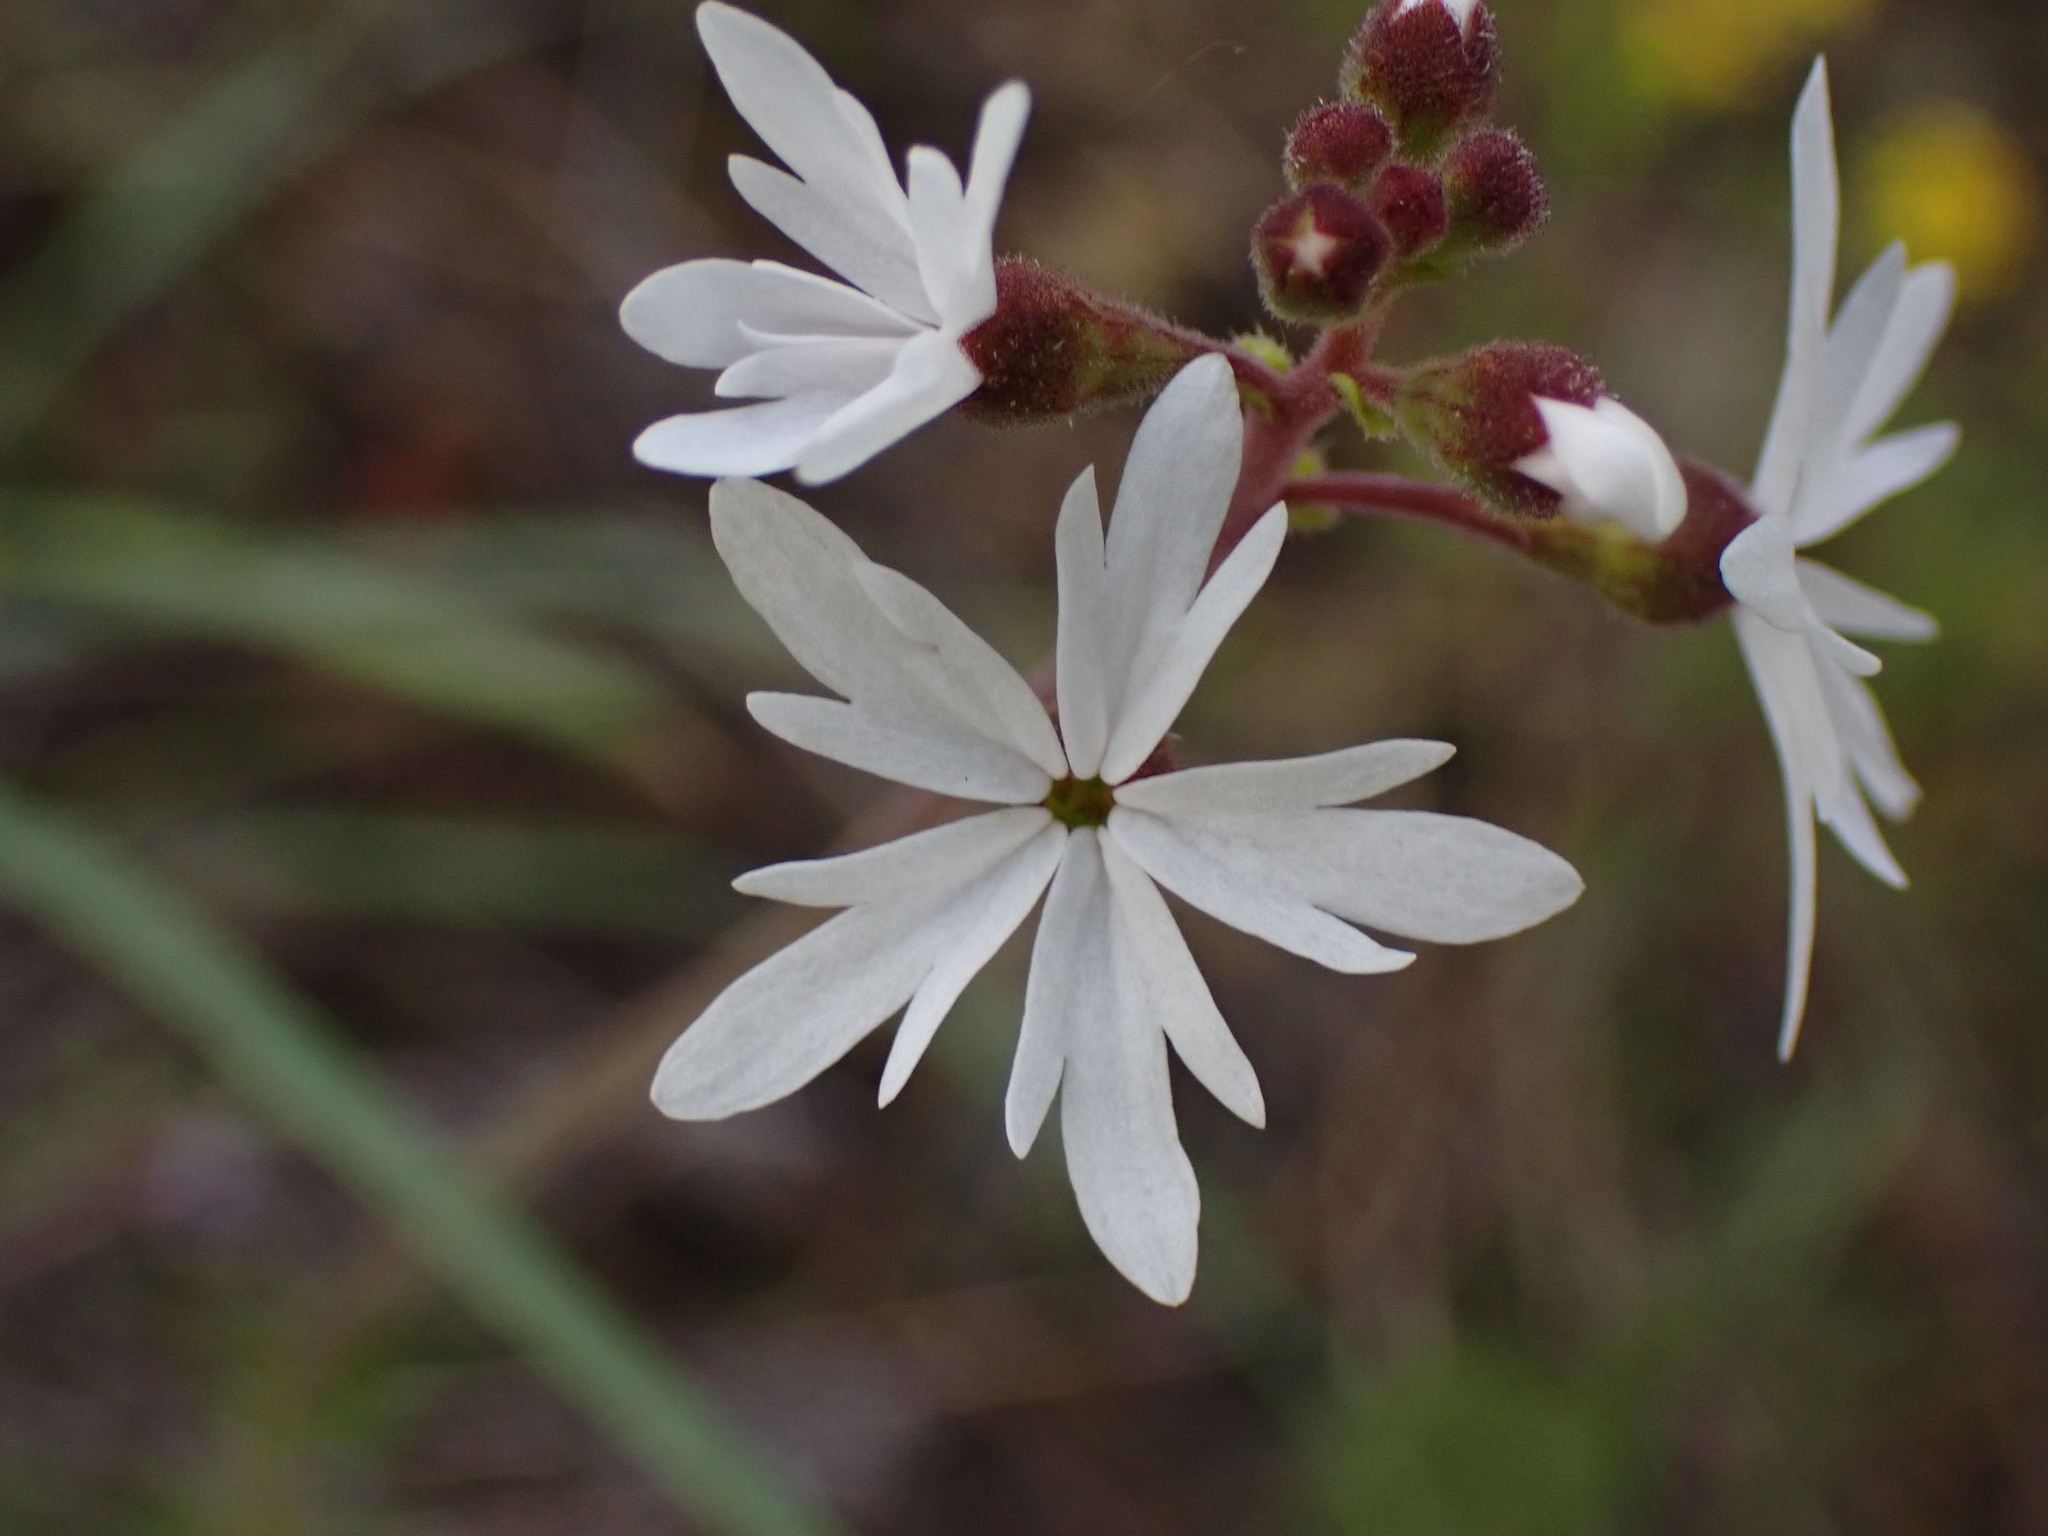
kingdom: Plantae
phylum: Tracheophyta
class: Magnoliopsida
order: Saxifragales
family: Saxifragaceae
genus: Lithophragma
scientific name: Lithophragma parviflorum
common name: Small-flowered fringe-cup
